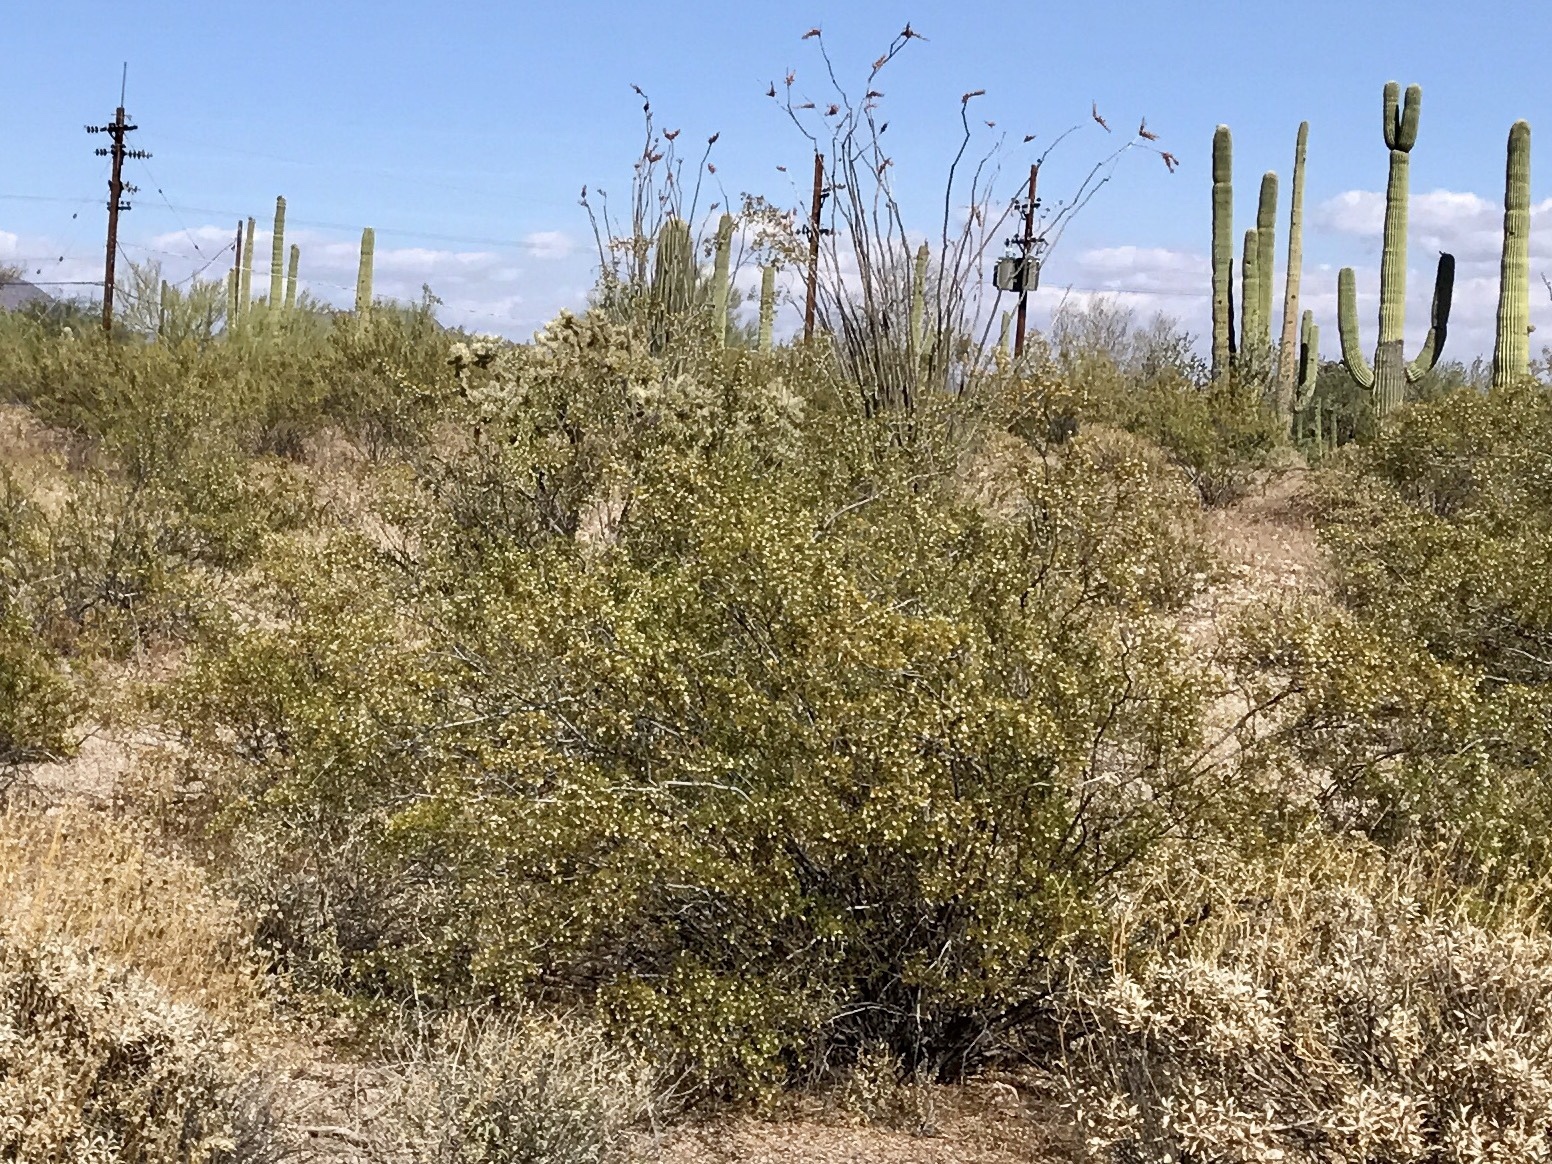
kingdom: Plantae
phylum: Tracheophyta
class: Magnoliopsida
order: Zygophyllales
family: Zygophyllaceae
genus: Larrea
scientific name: Larrea tridentata
